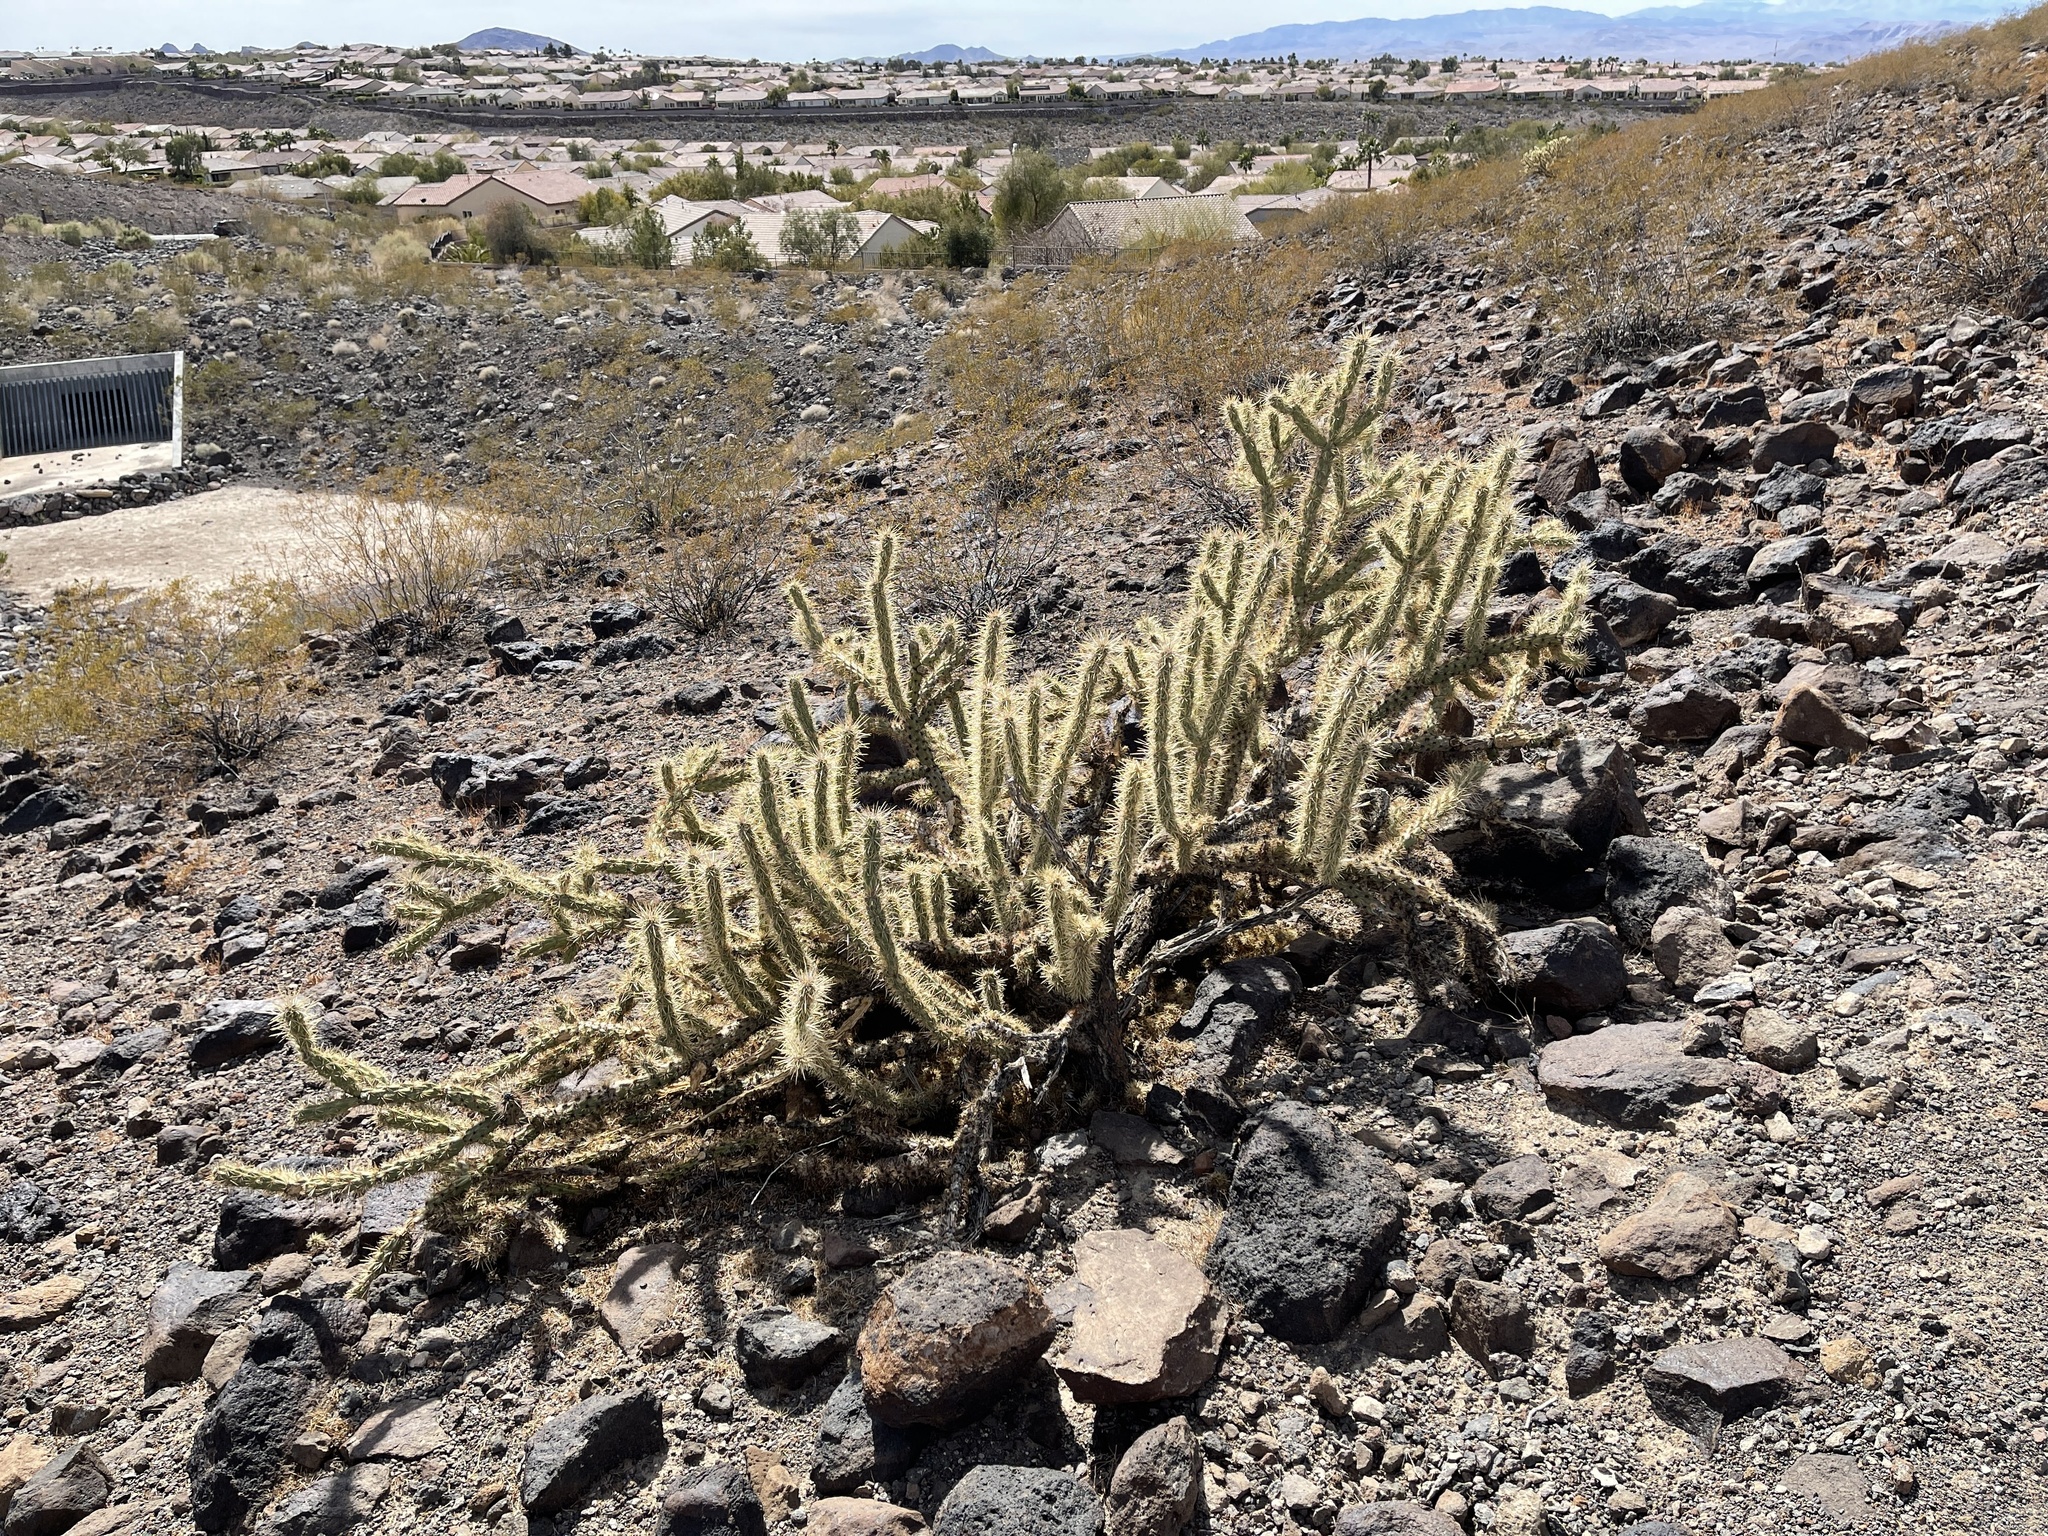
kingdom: Plantae
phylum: Tracheophyta
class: Magnoliopsida
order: Caryophyllales
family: Cactaceae
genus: Cylindropuntia
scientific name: Cylindropuntia acanthocarpa
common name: Buckhorn cholla
